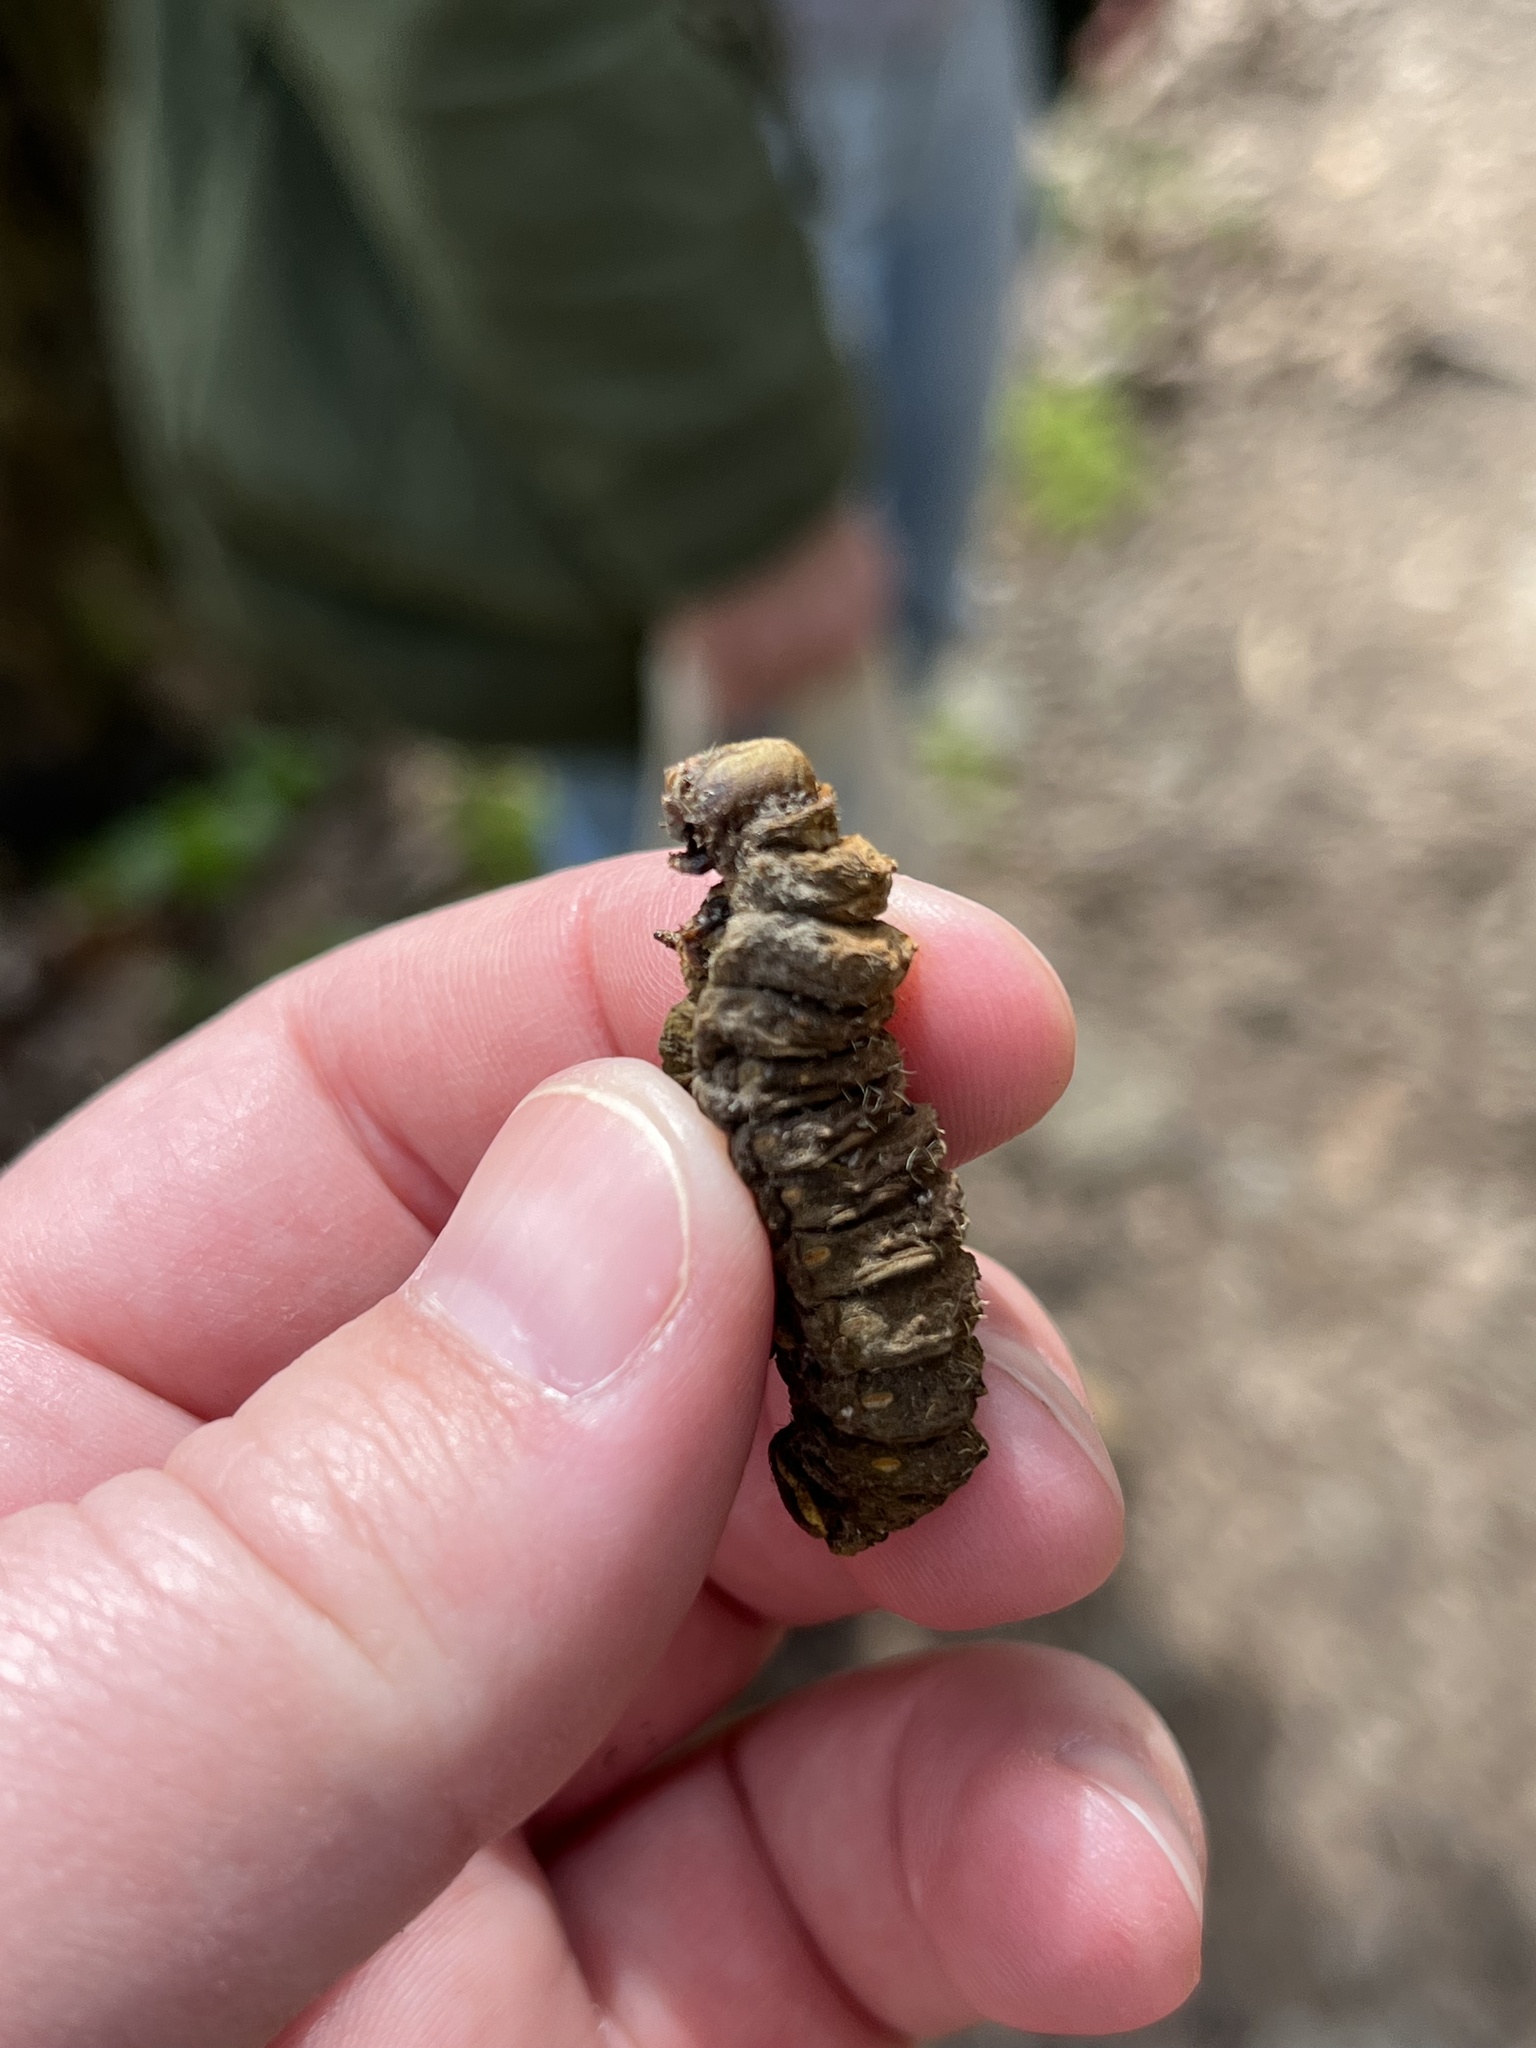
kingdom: Animalia
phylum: Arthropoda
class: Insecta
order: Lepidoptera
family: Saturniidae
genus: Actias
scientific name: Actias luna
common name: Luna moth
